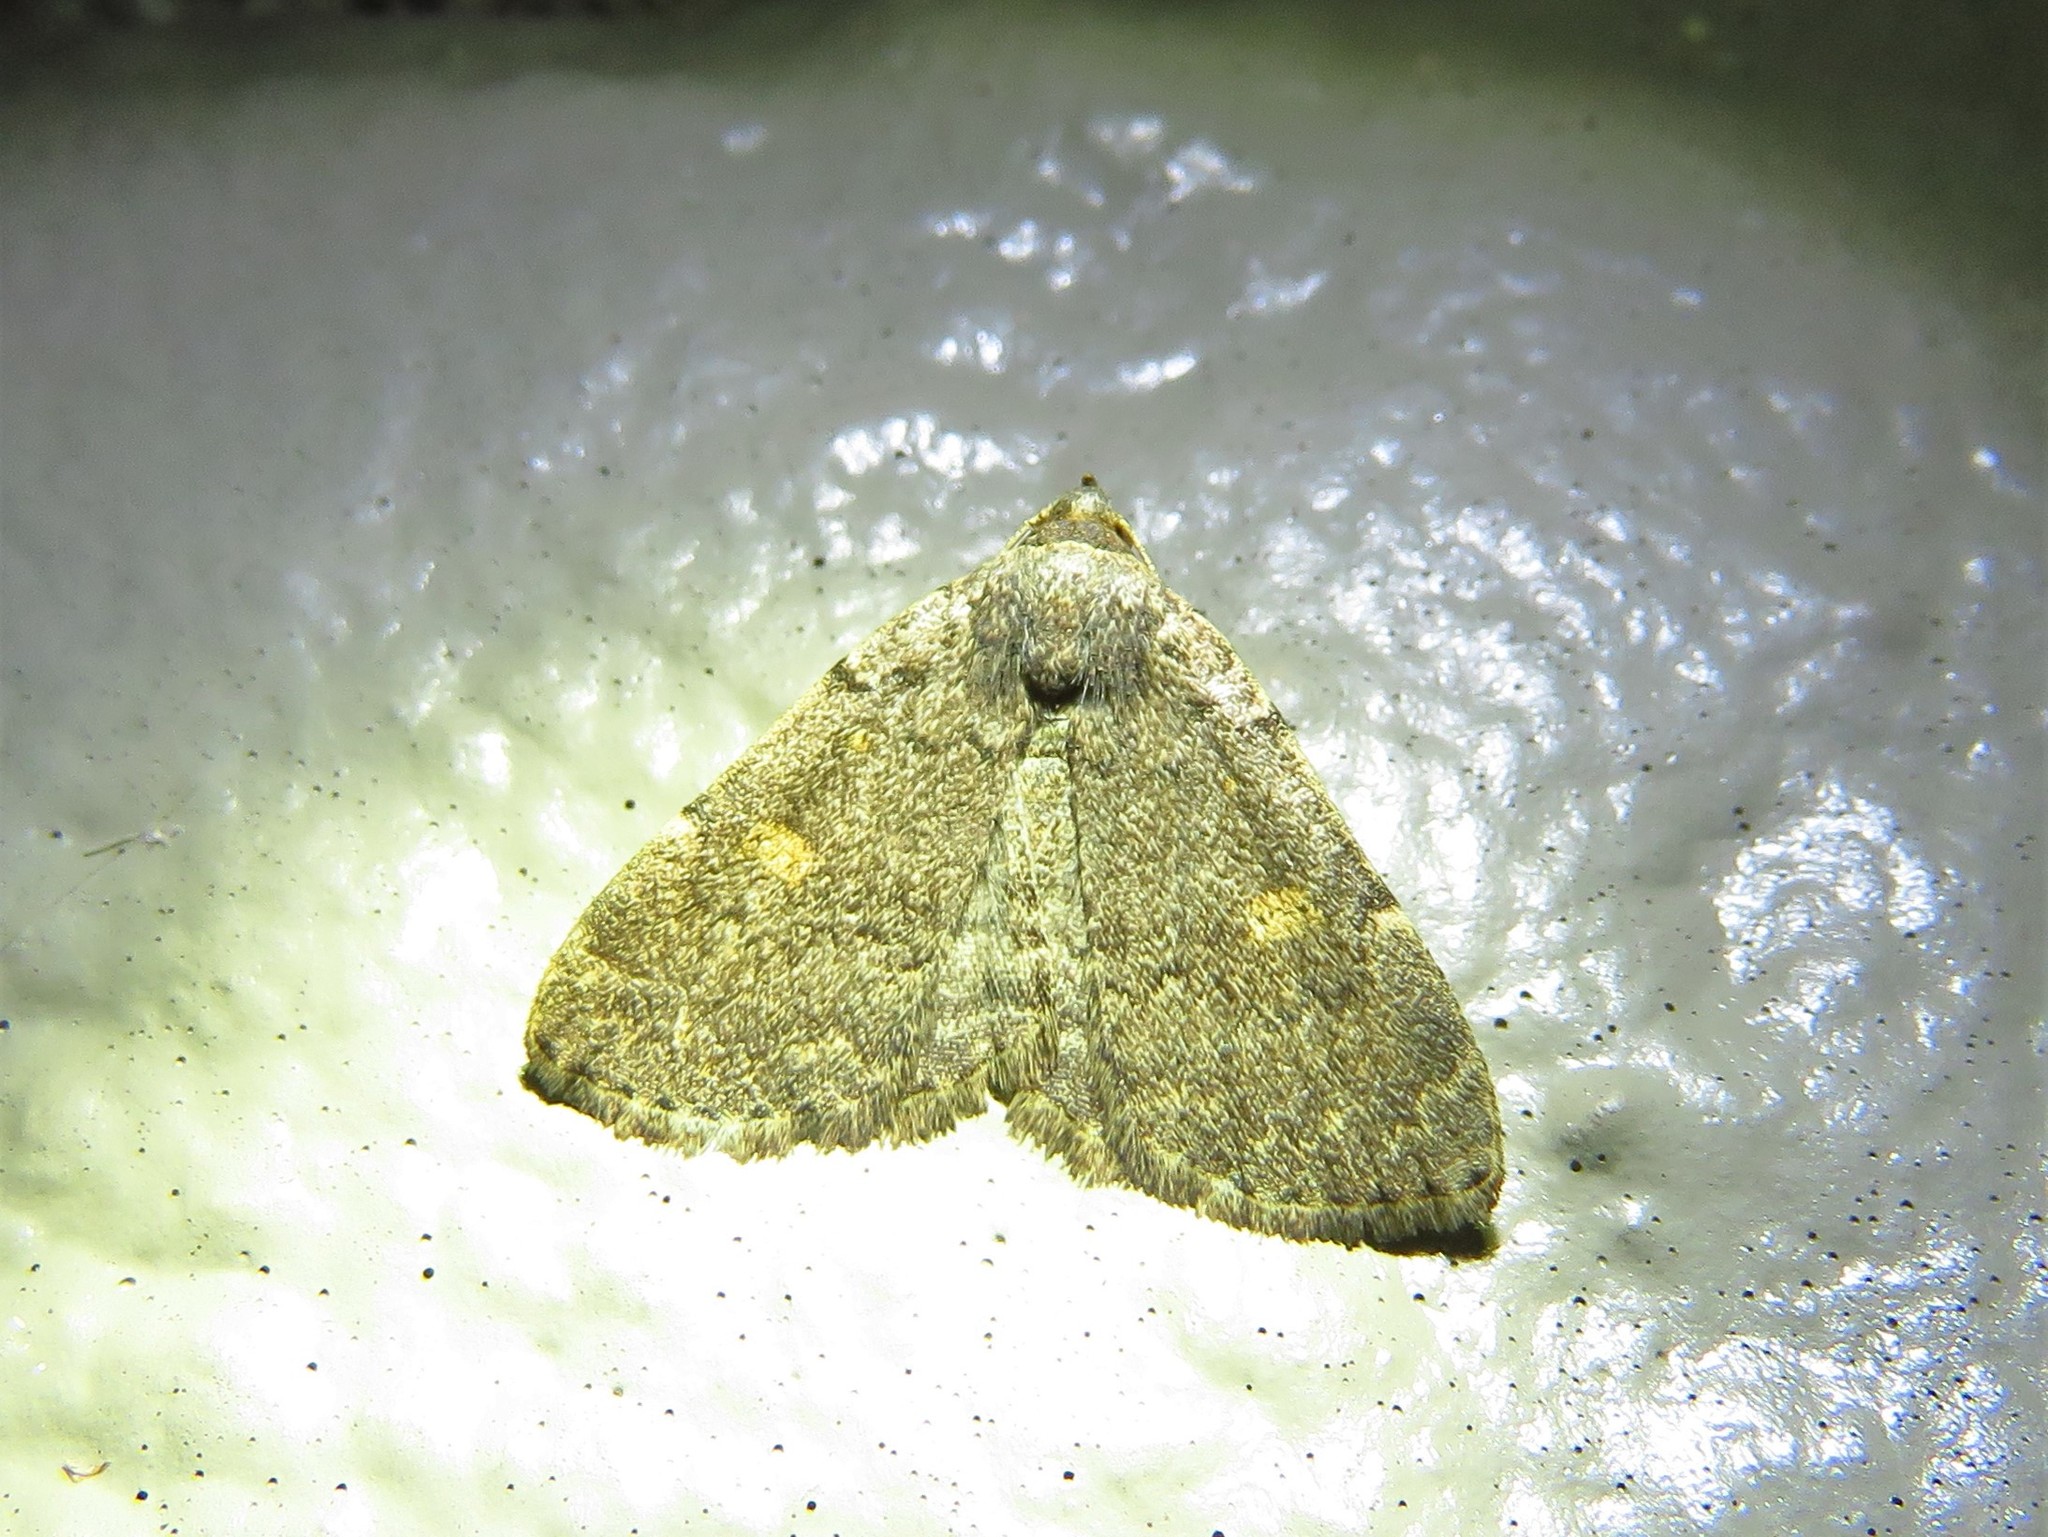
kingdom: Animalia
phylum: Arthropoda
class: Insecta
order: Lepidoptera
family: Erebidae
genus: Idia
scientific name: Idia aemula
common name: Common idia moth
